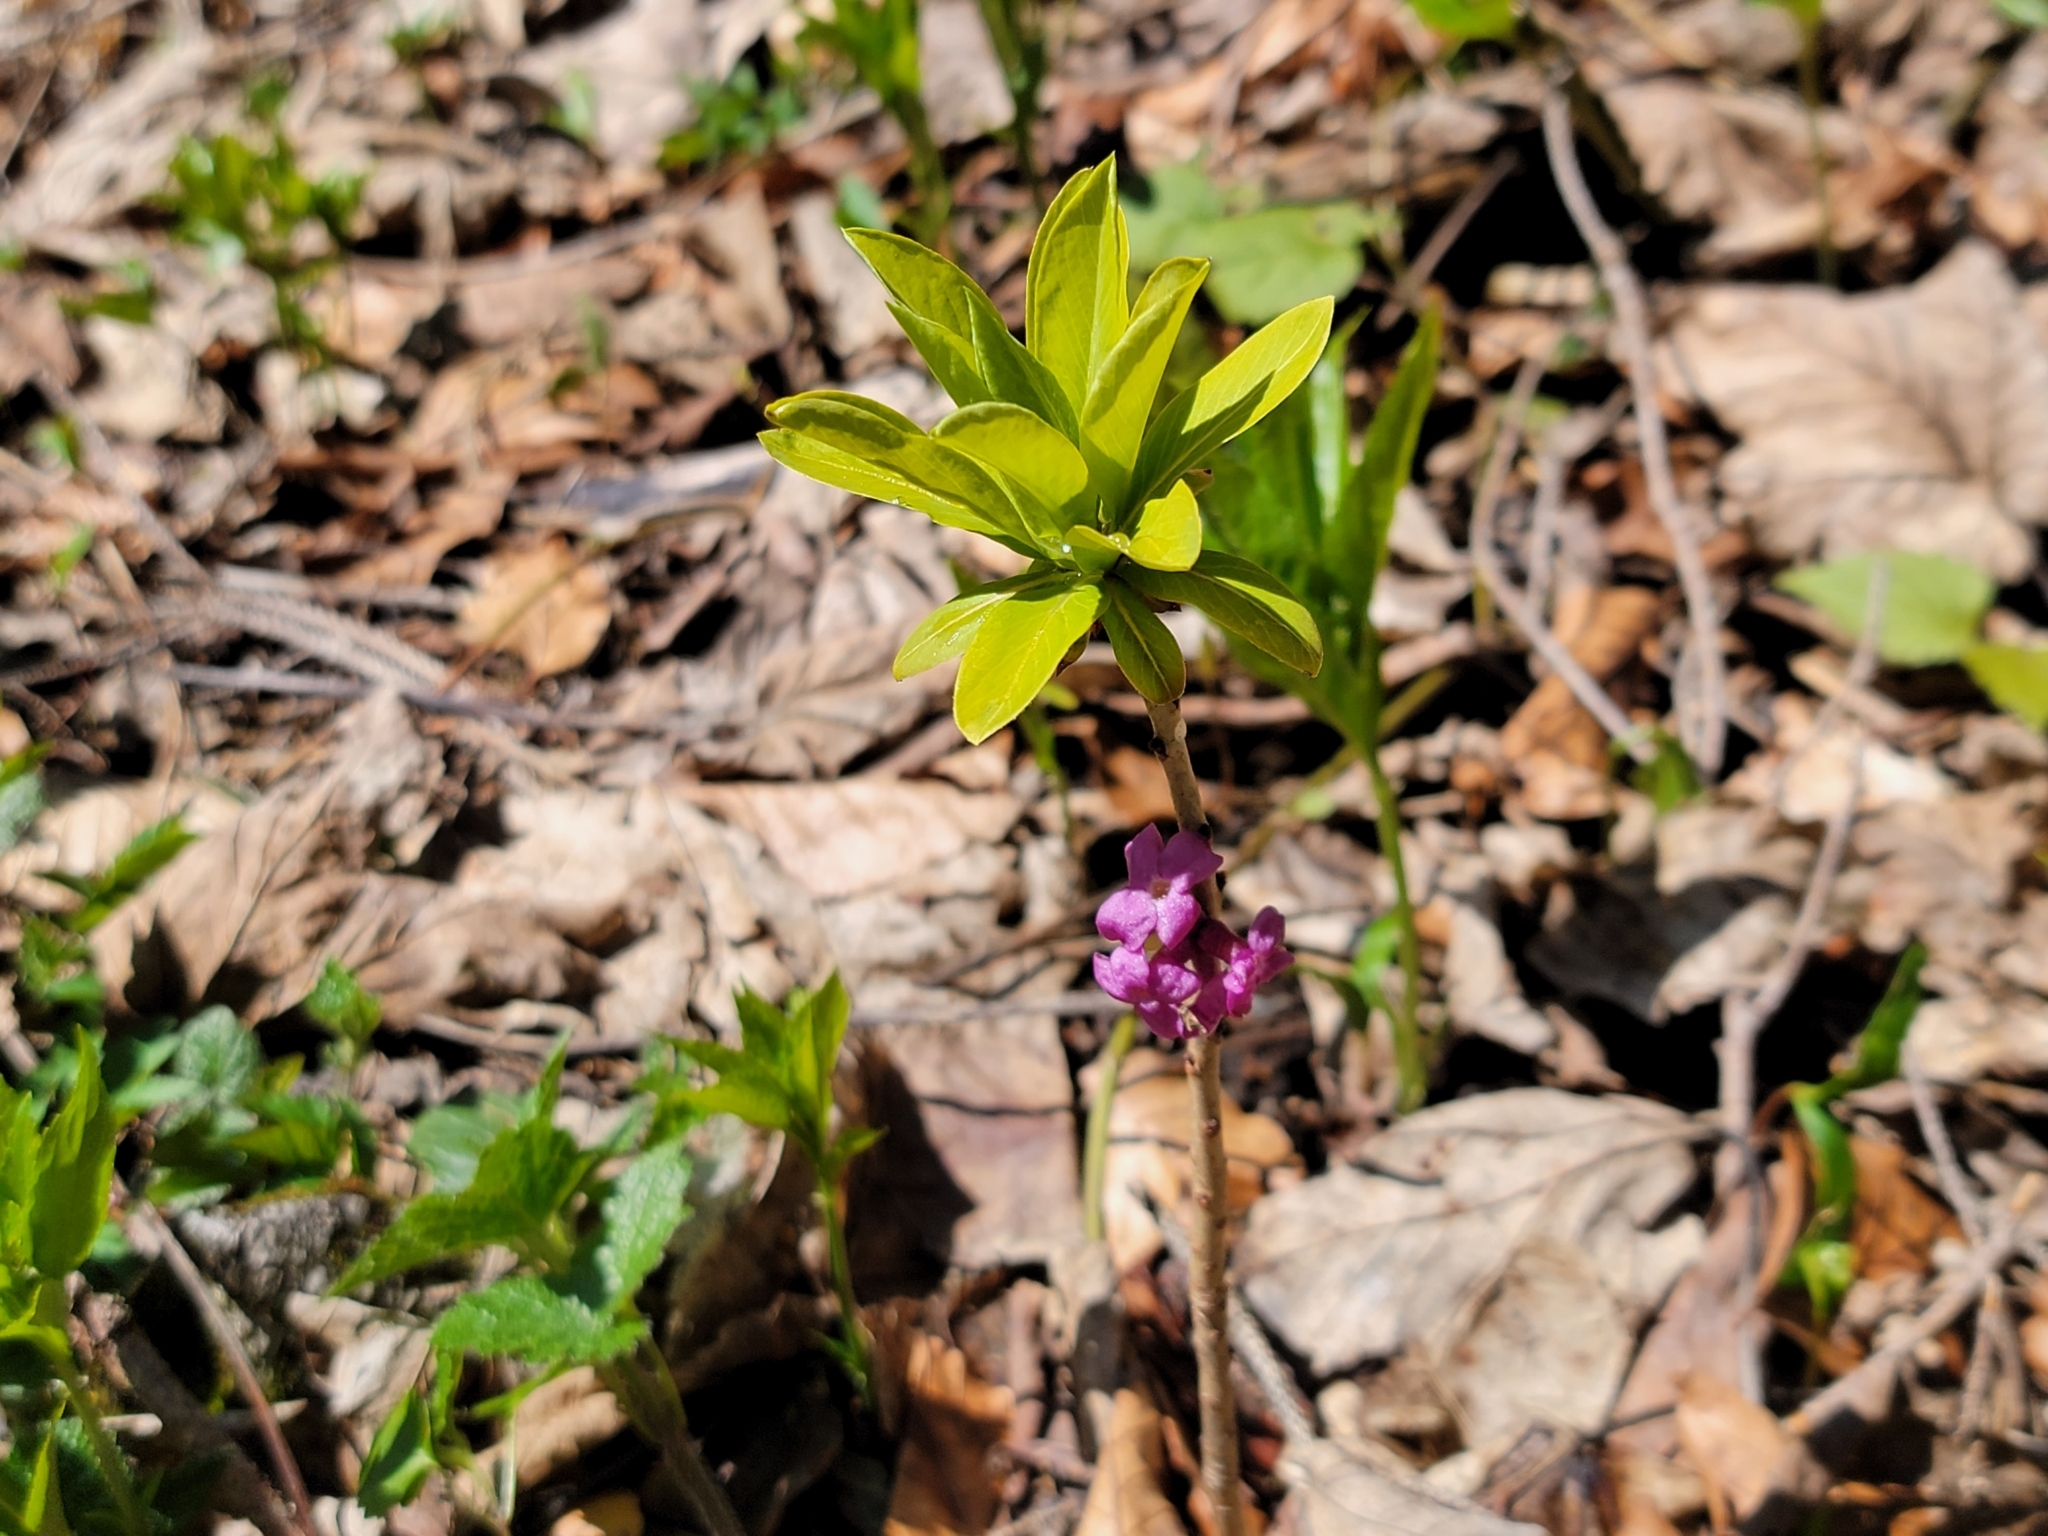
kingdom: Plantae
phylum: Tracheophyta
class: Magnoliopsida
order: Malvales
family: Thymelaeaceae
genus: Daphne
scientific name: Daphne mezereum
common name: Mezereon
